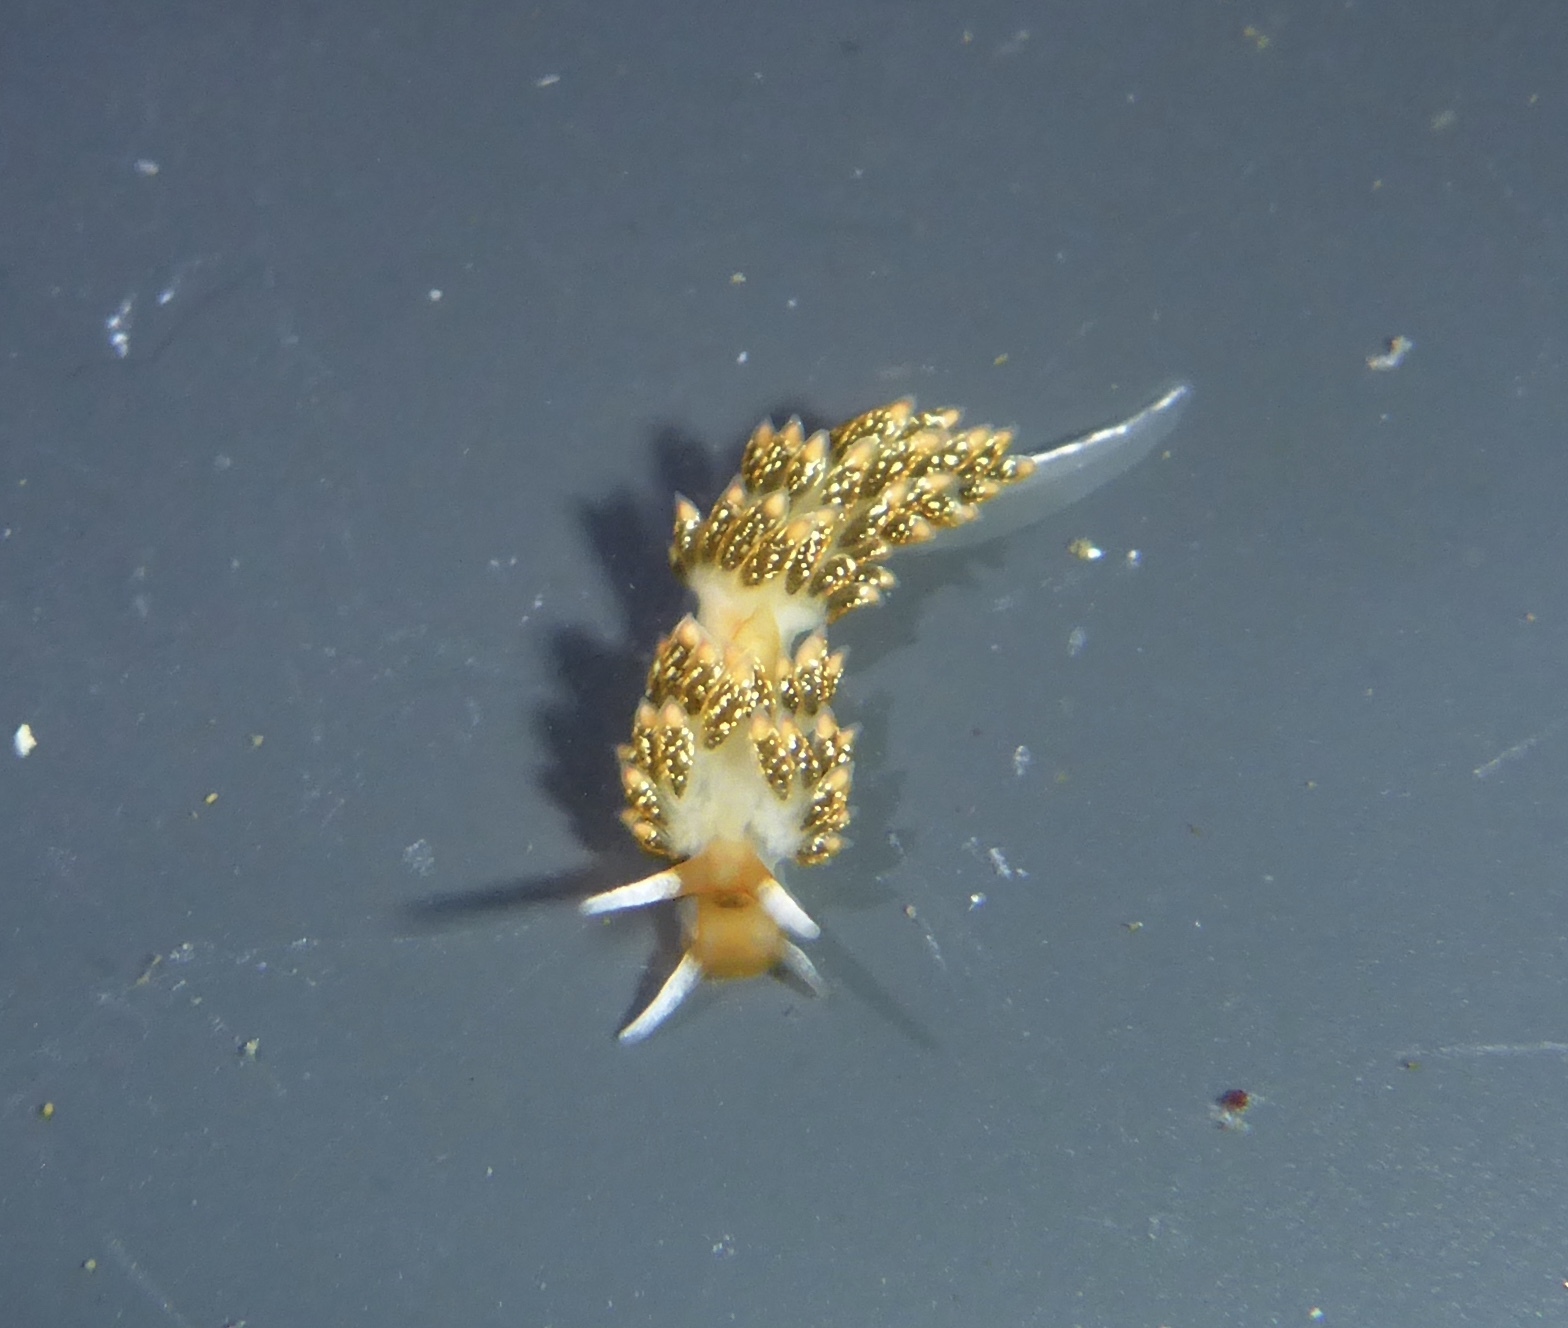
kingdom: Animalia
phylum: Mollusca
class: Gastropoda
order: Nudibranchia
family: Trinchesiidae
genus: Diaphoreolis
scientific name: Diaphoreolis flavovulta
